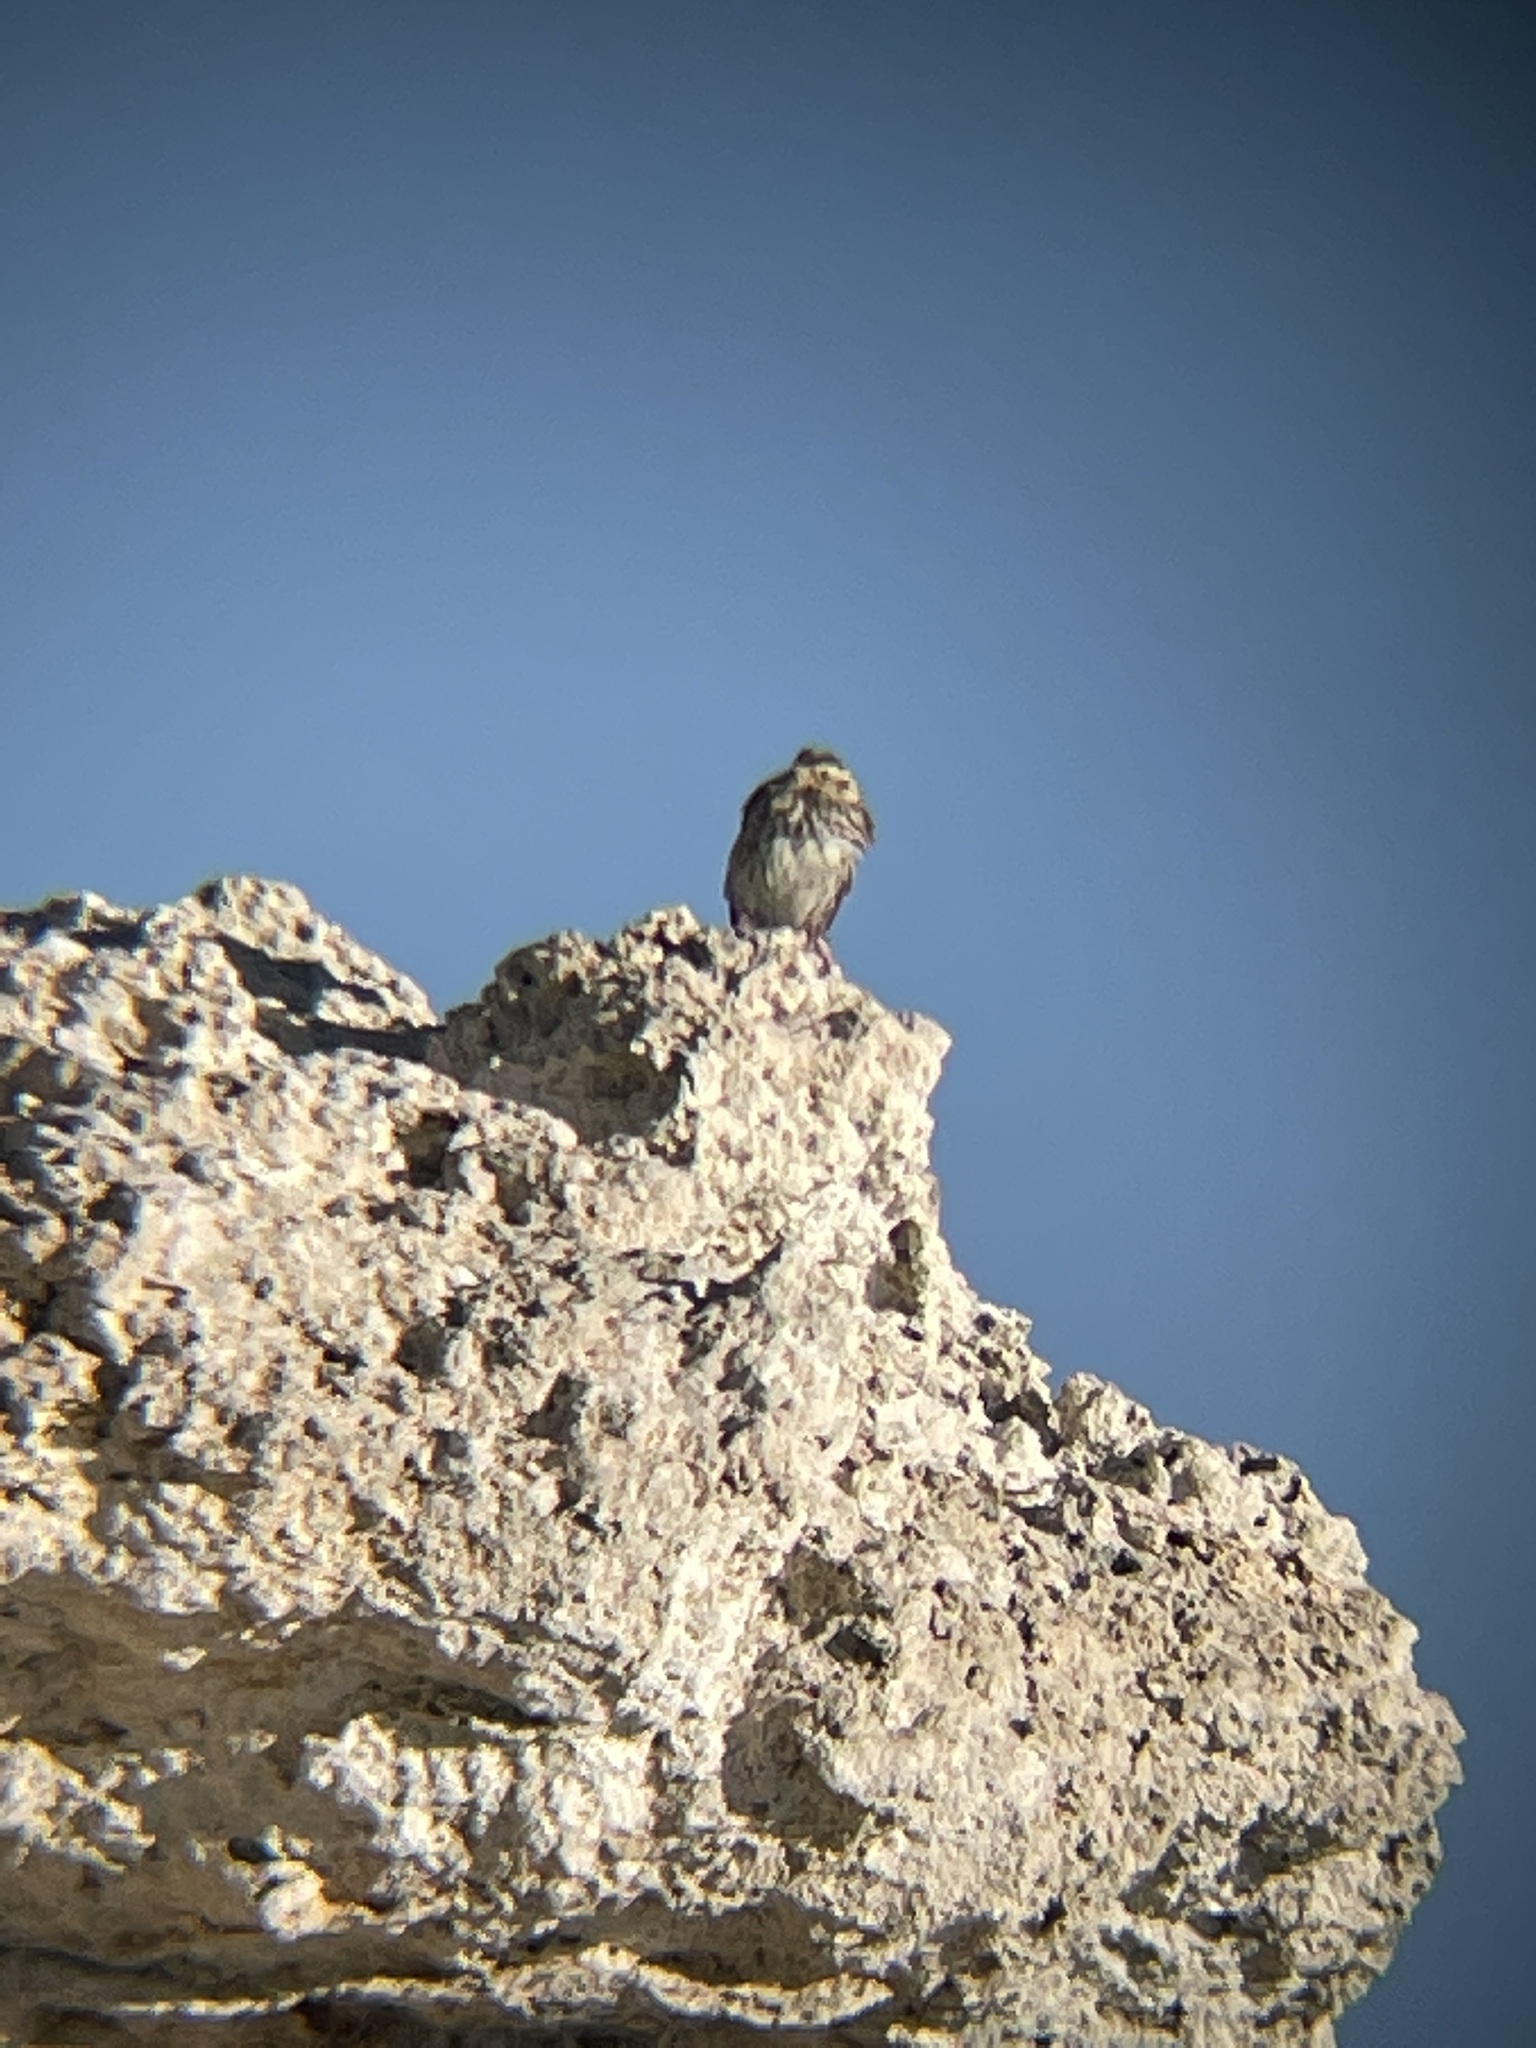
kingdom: Animalia
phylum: Chordata
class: Aves
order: Passeriformes
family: Passerellidae
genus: Passerculus
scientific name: Passerculus sandwichensis
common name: Savannah sparrow
